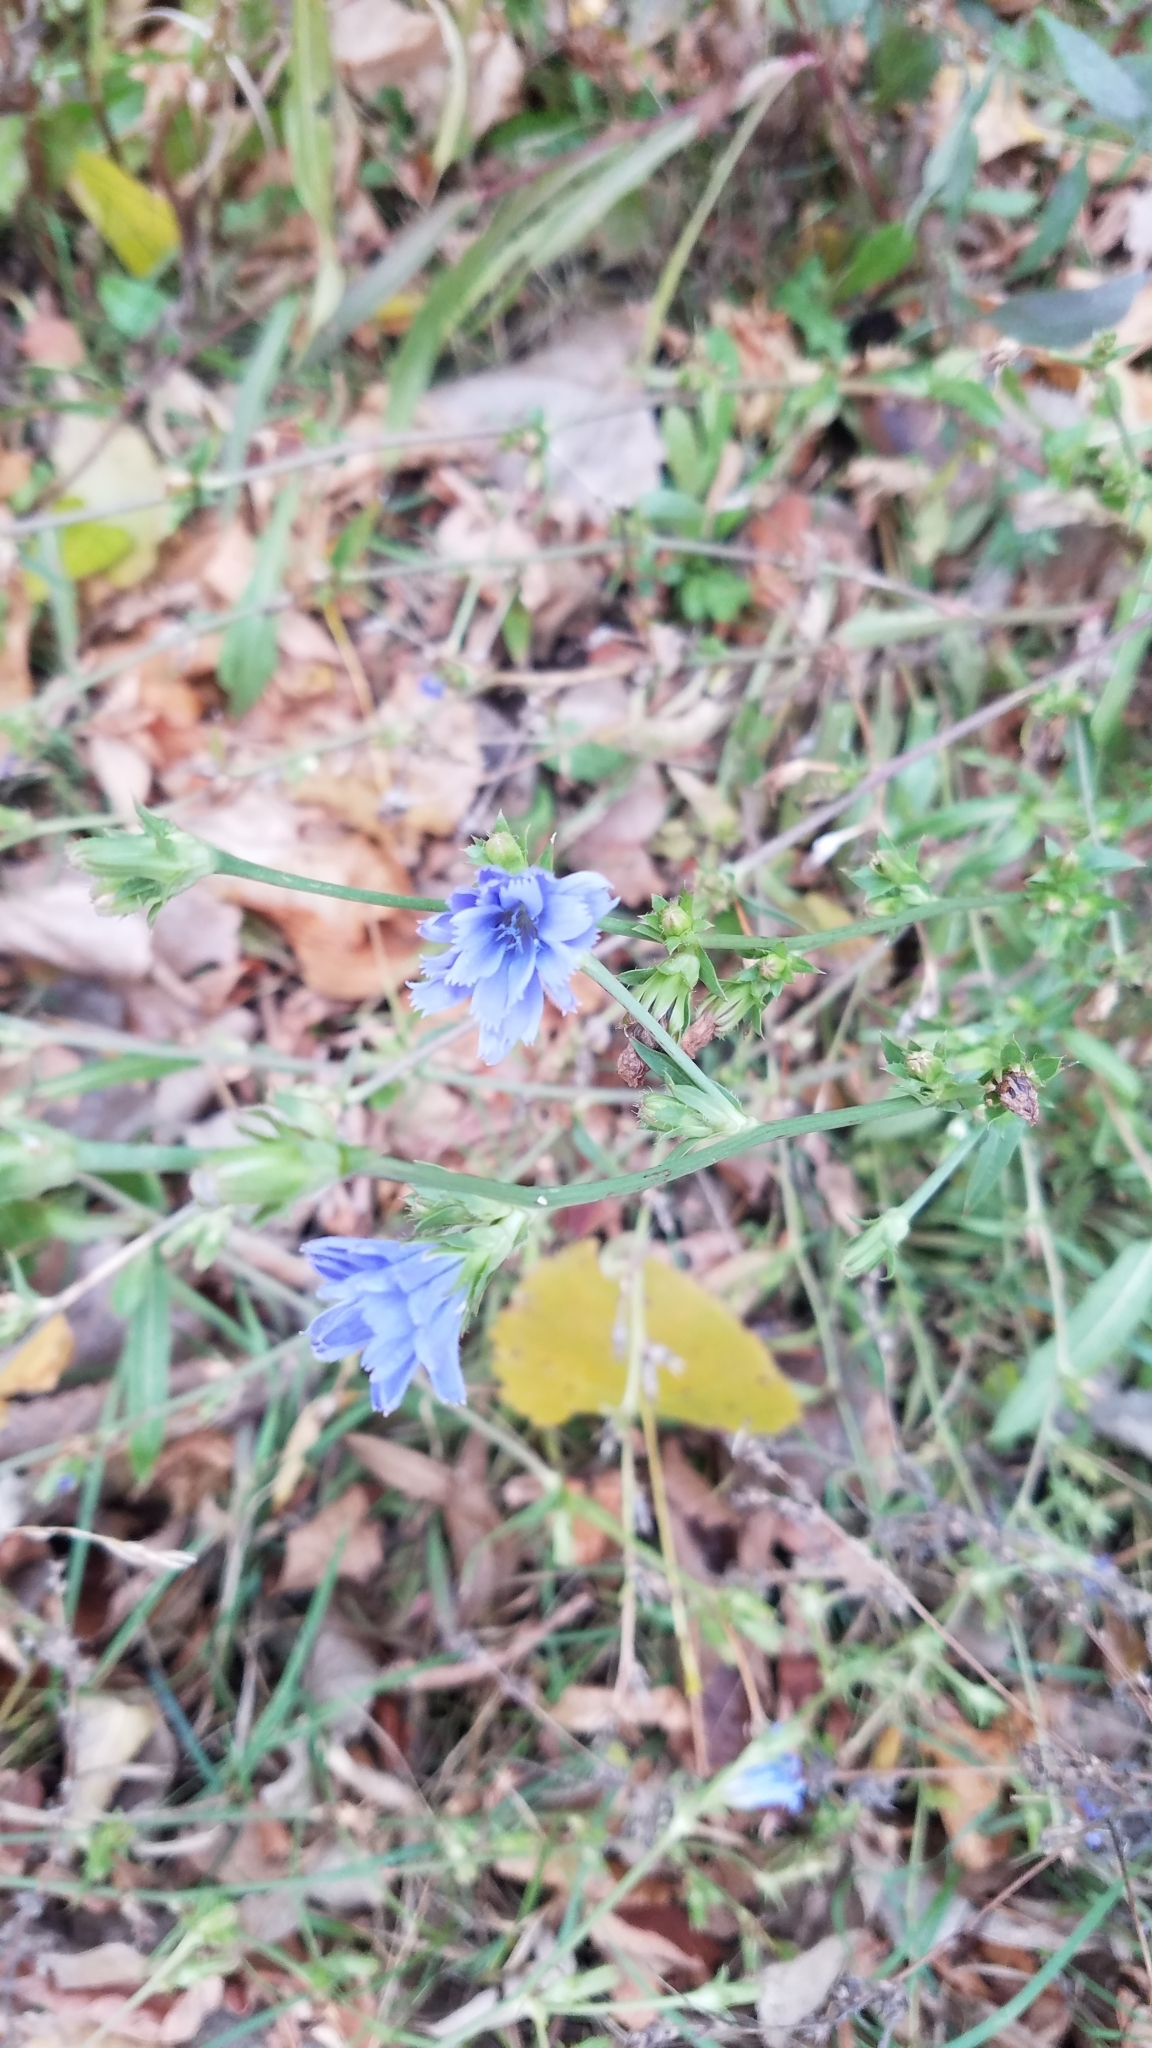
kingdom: Plantae
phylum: Tracheophyta
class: Magnoliopsida
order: Asterales
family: Asteraceae
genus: Cichorium
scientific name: Cichorium intybus
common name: Chicory
